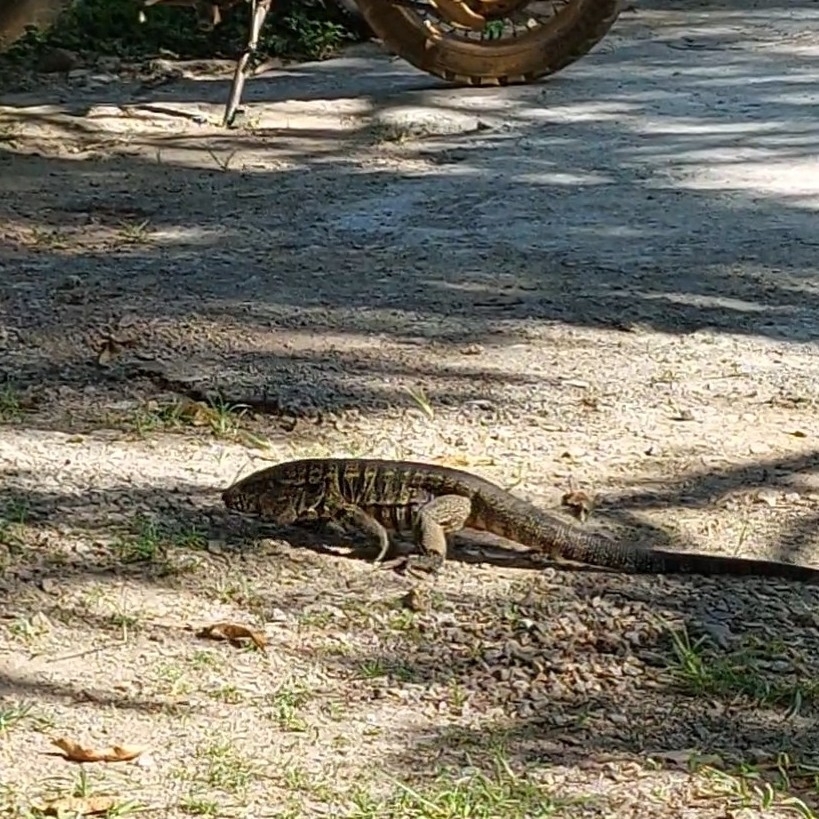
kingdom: Animalia
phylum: Chordata
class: Squamata
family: Teiidae
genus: Salvator
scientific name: Salvator merianae
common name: Argentine black and white tegu
